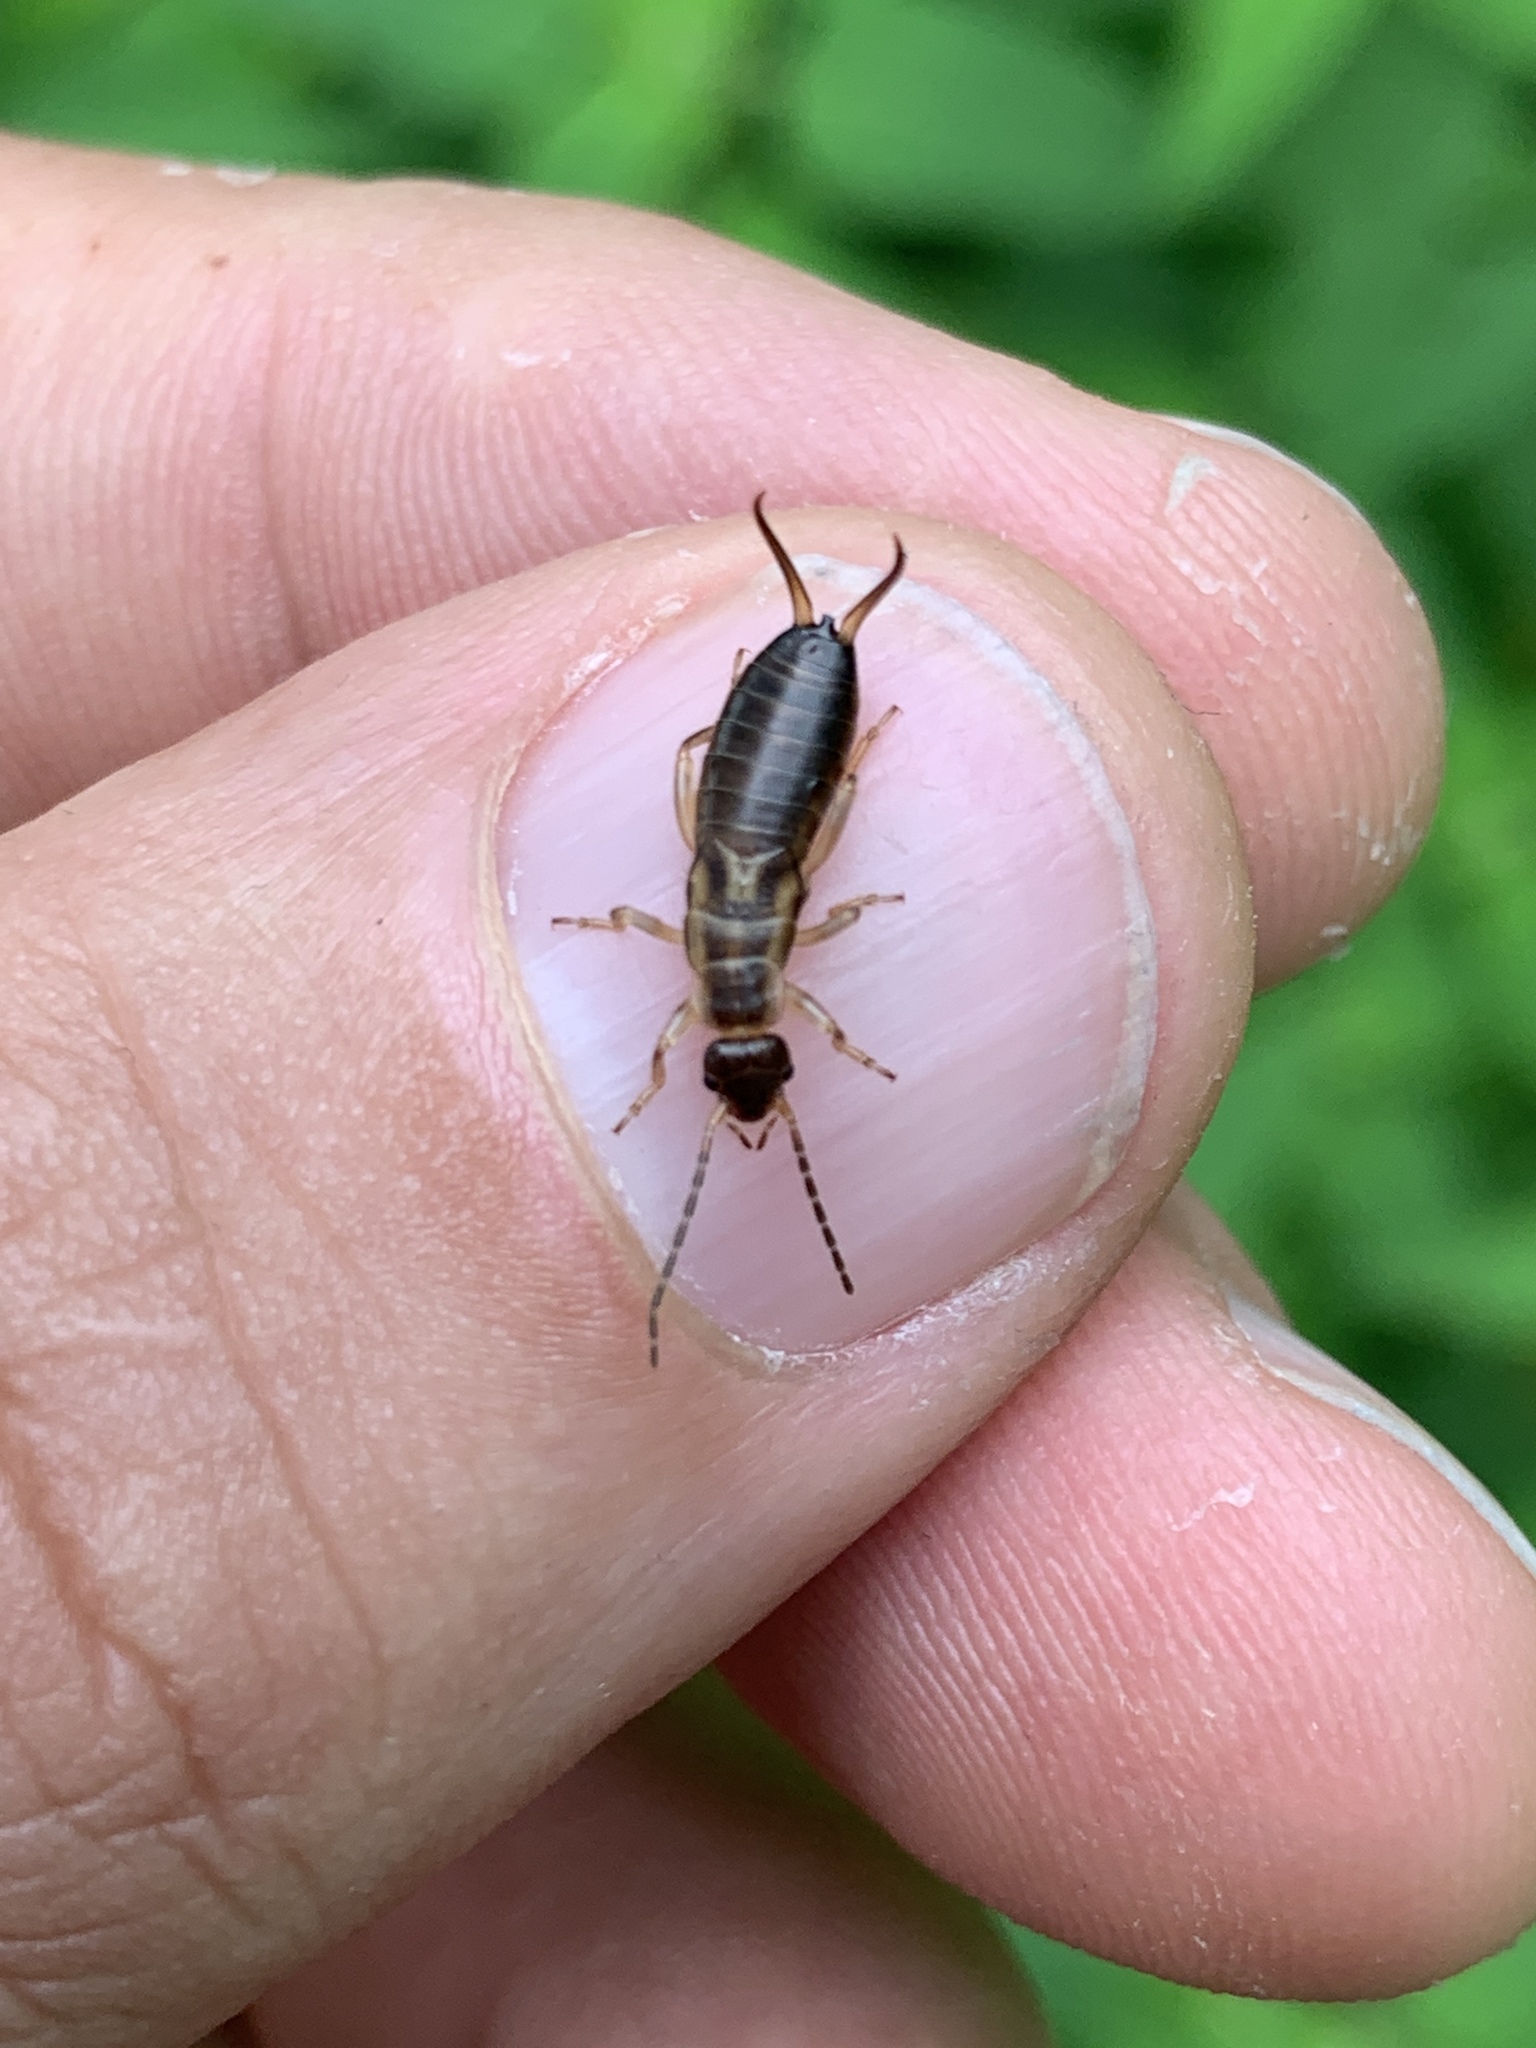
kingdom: Animalia
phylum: Arthropoda
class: Insecta
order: Dermaptera
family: Forficulidae
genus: Forficula
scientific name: Forficula
